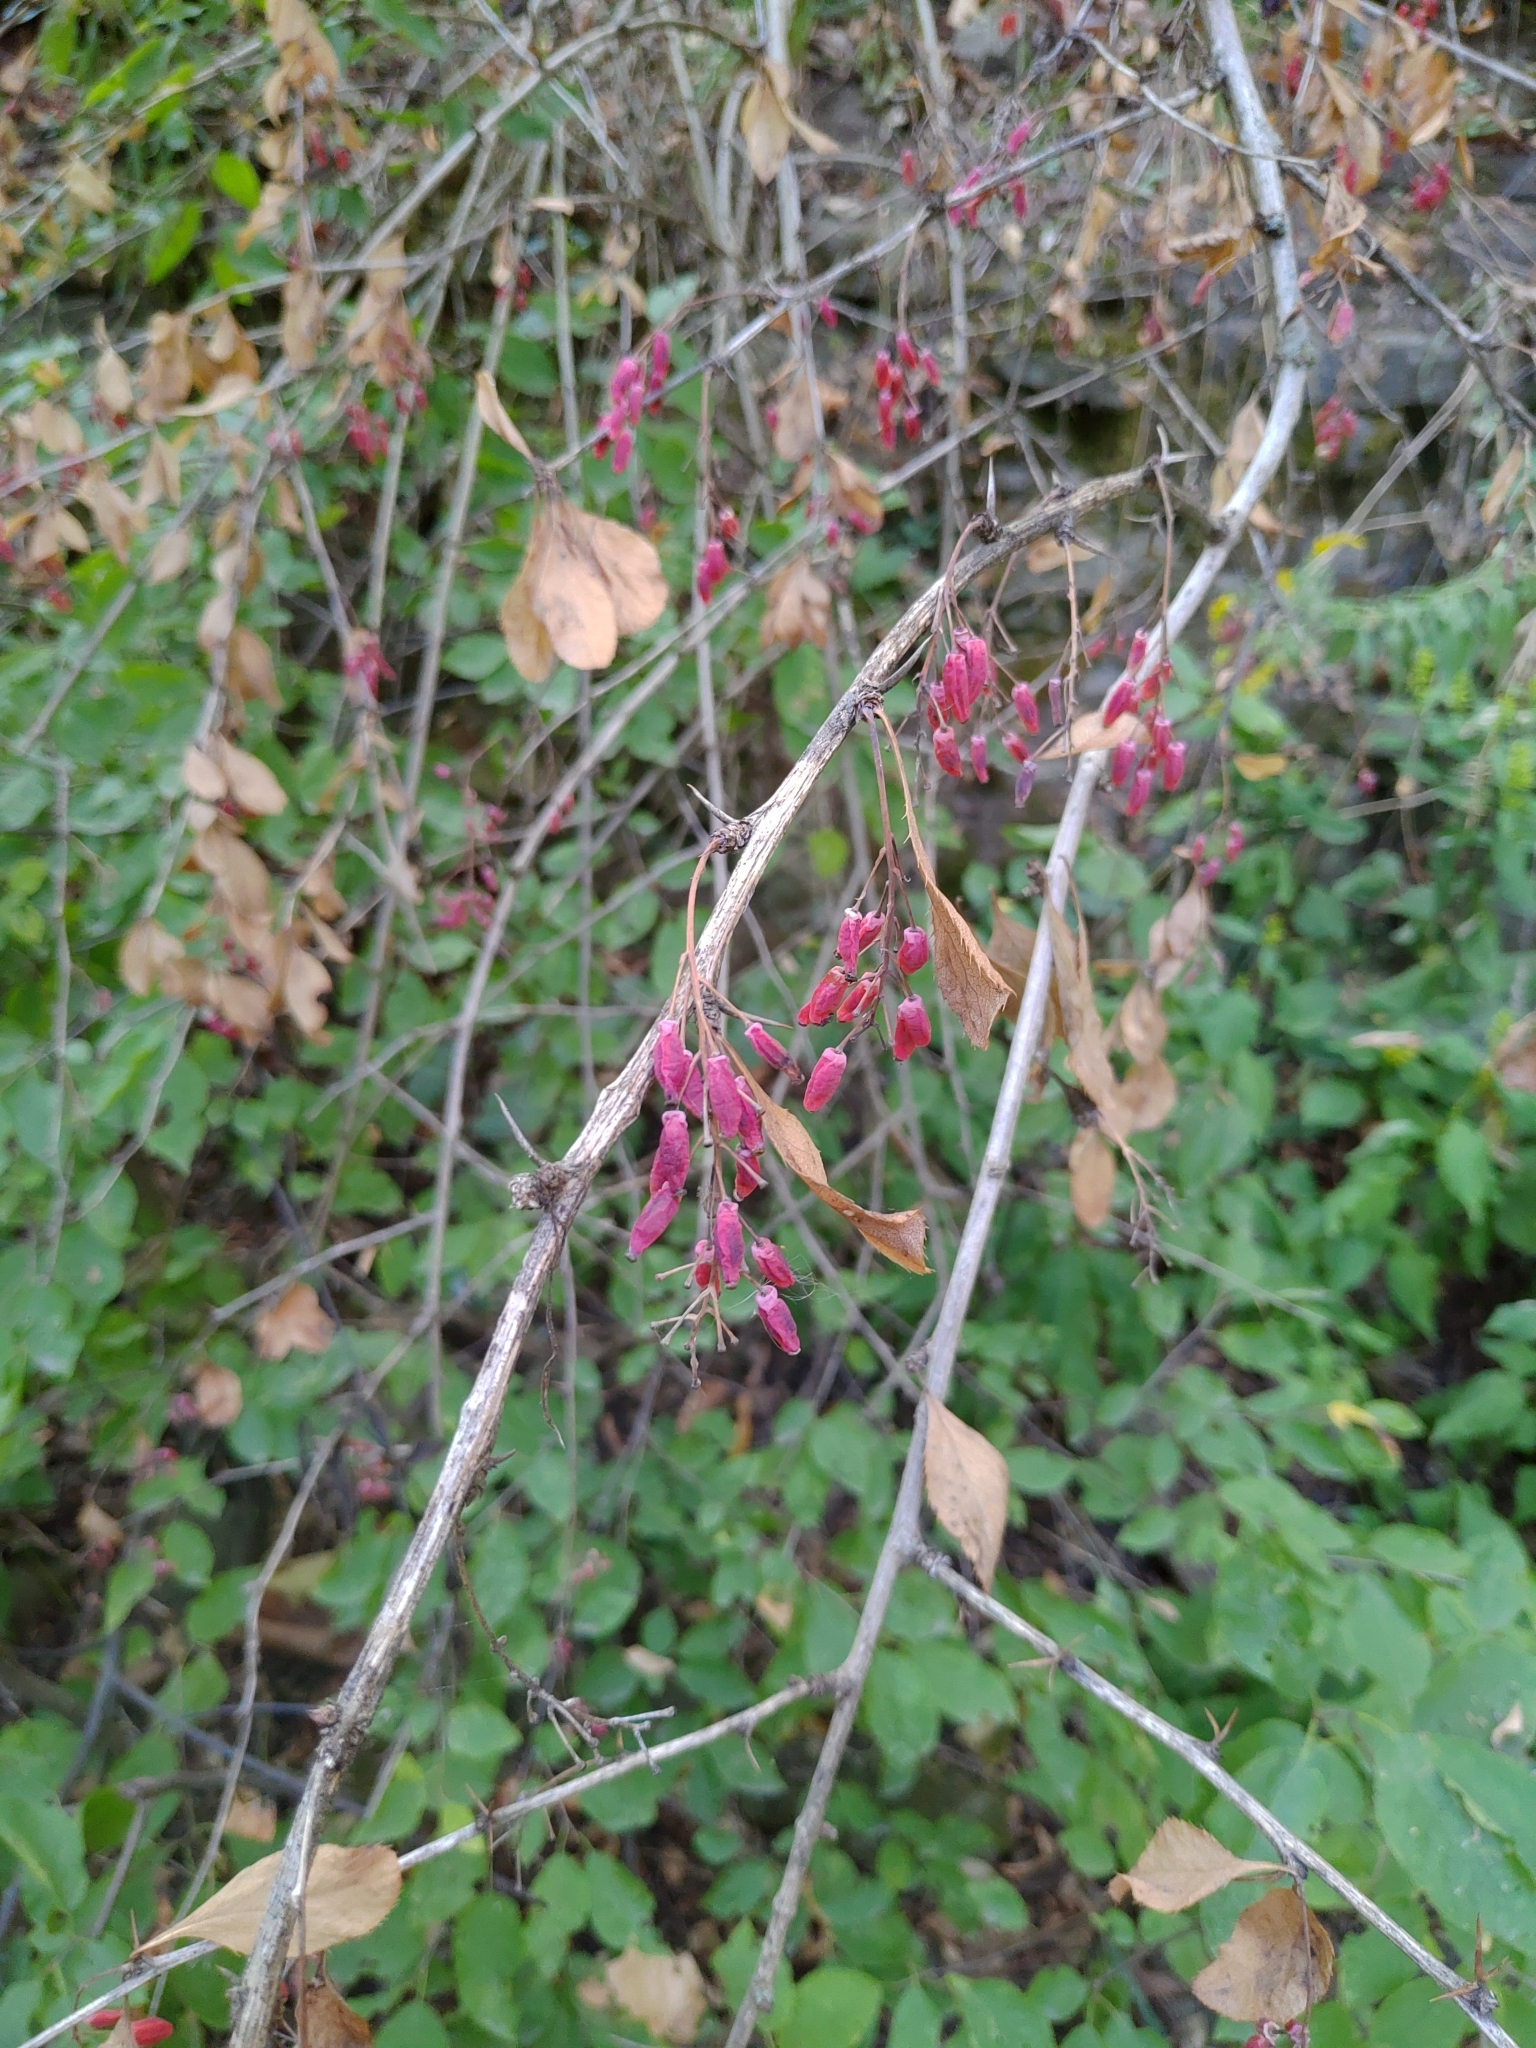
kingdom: Plantae
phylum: Tracheophyta
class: Magnoliopsida
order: Ranunculales
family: Berberidaceae
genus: Berberis
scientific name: Berberis vulgaris
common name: Barberry
